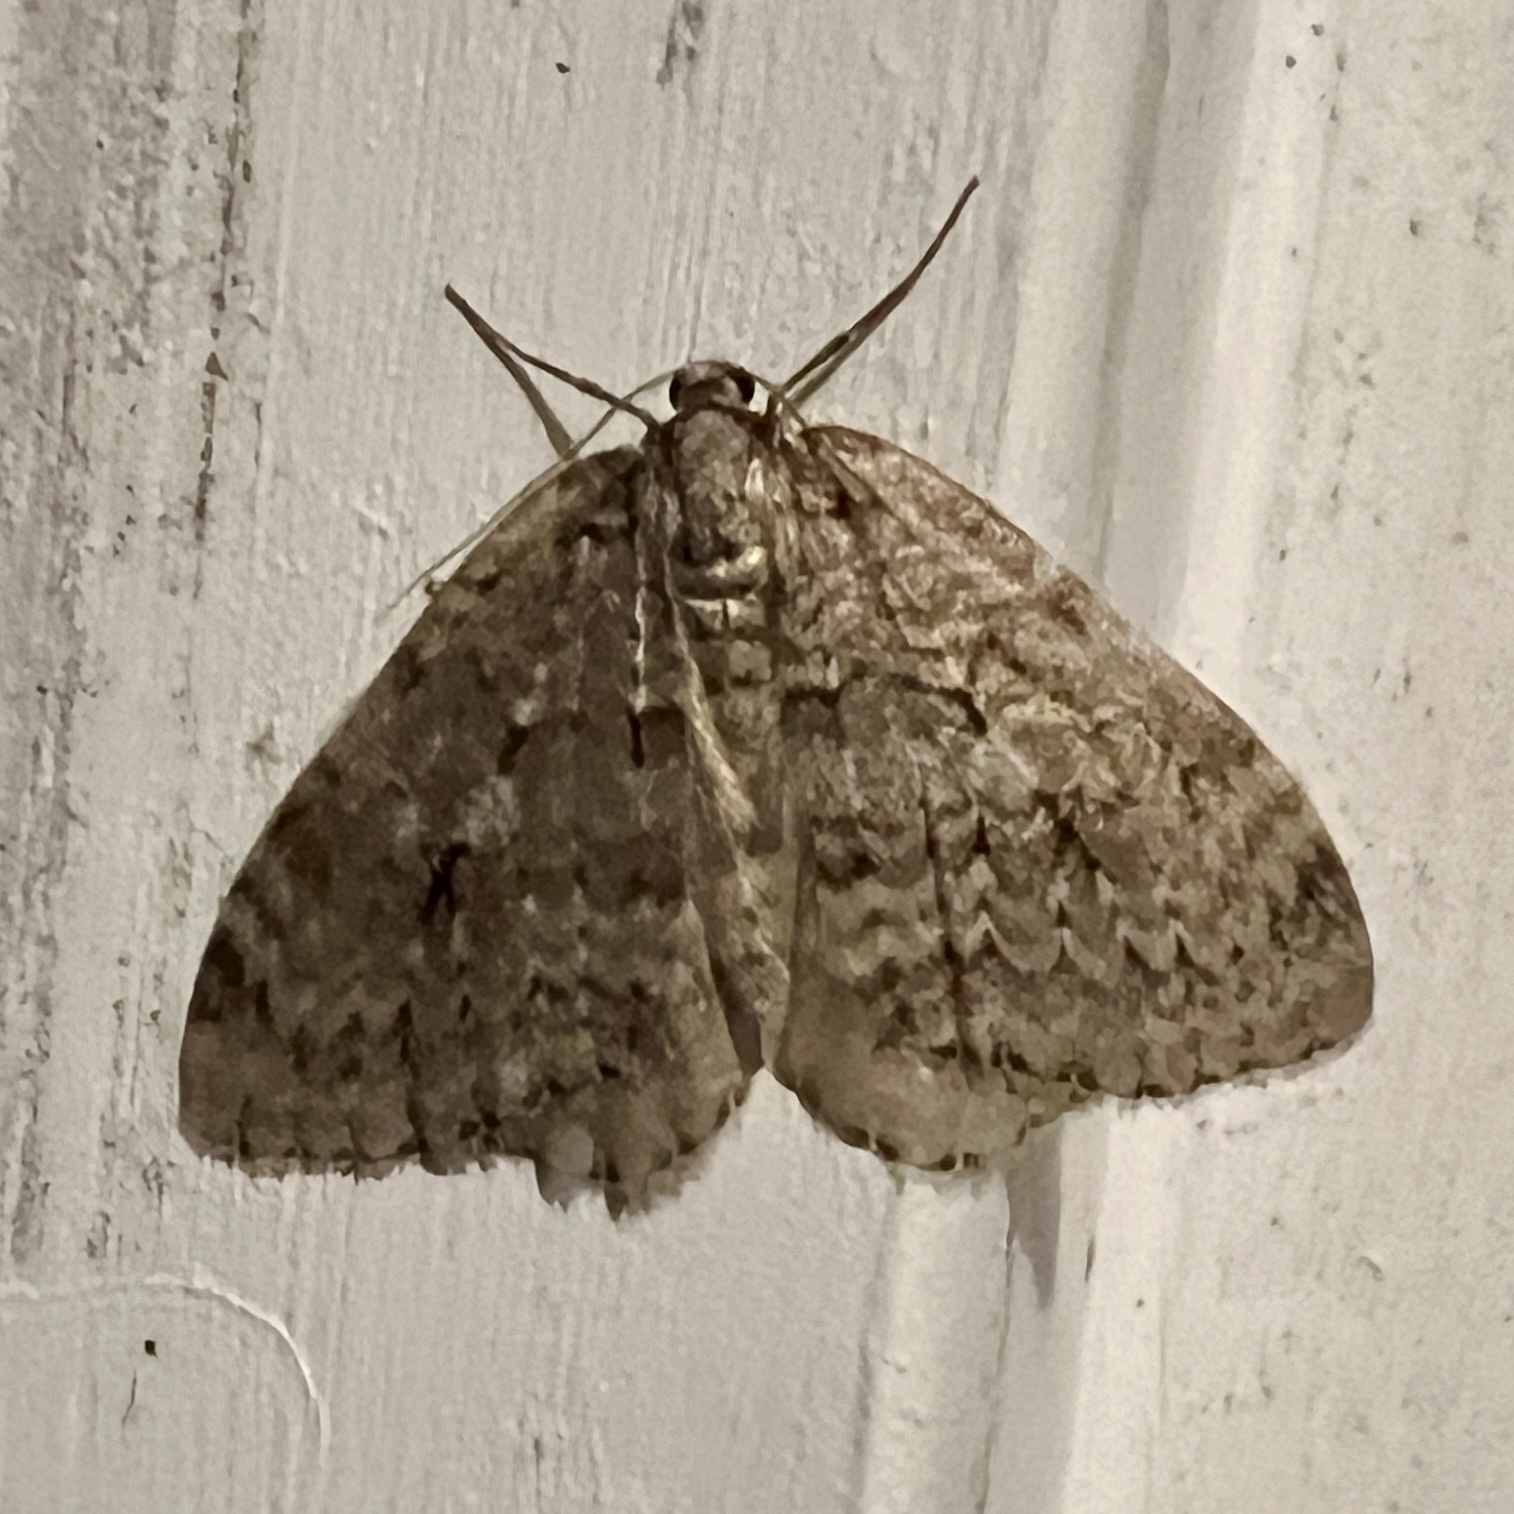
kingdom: Animalia
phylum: Arthropoda
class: Insecta
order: Lepidoptera
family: Geometridae
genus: Epirrita
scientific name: Epirrita autumnata
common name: Autumnal moth
